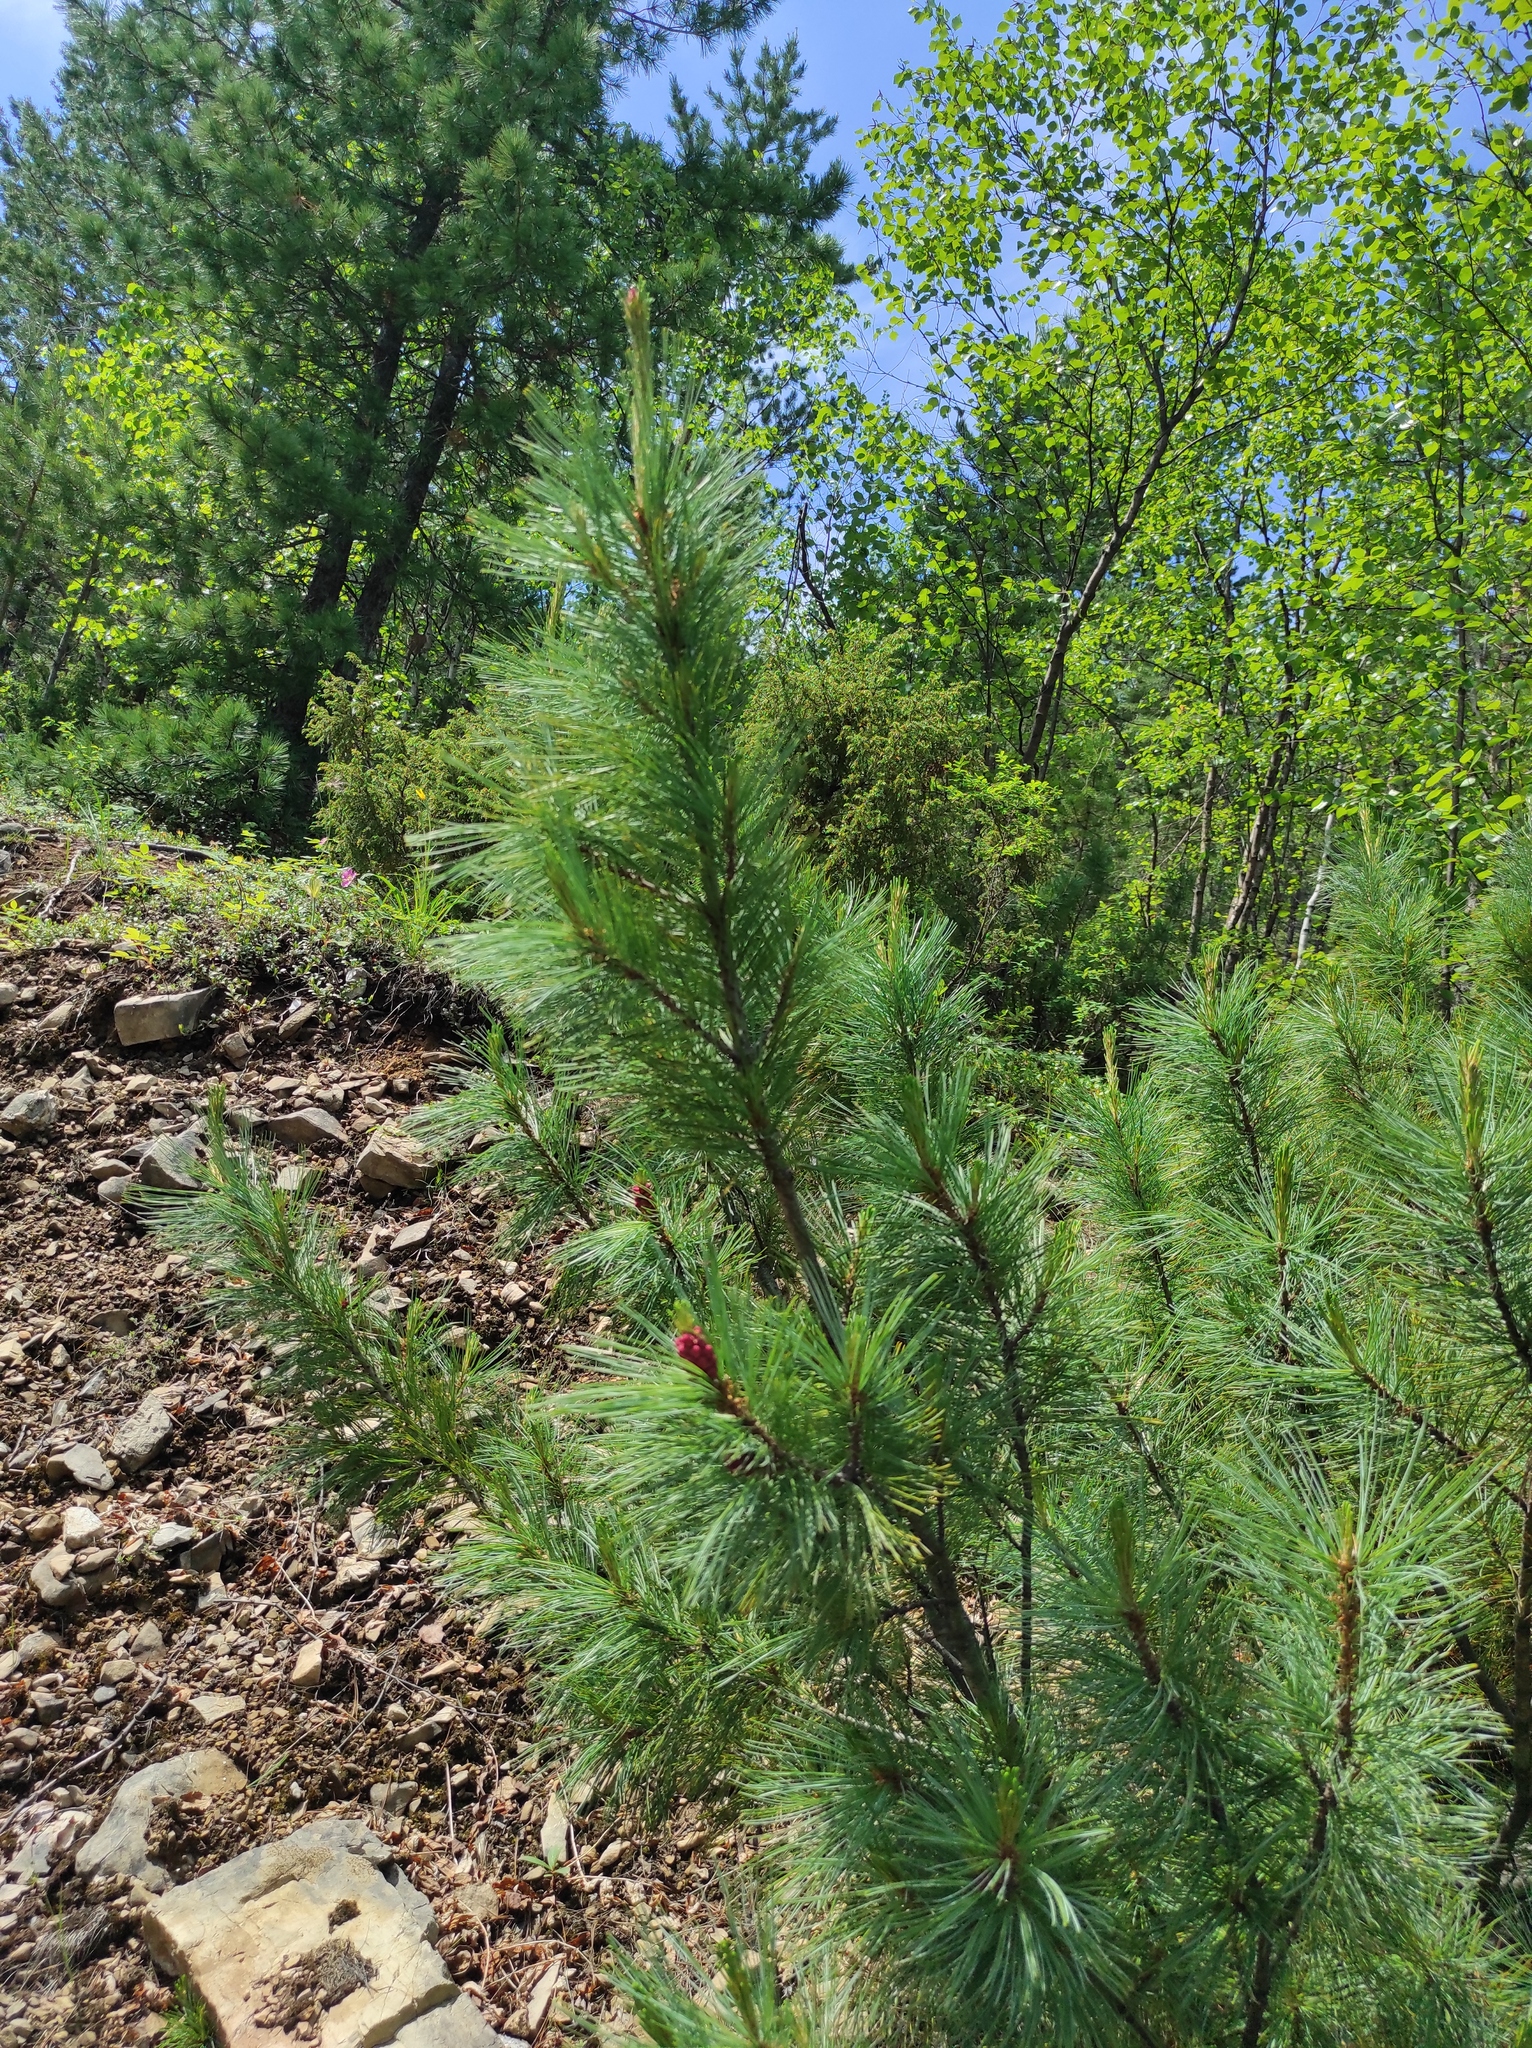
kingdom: Plantae
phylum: Tracheophyta
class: Pinopsida
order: Pinales
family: Pinaceae
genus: Pinus
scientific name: Pinus pumila
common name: Dwarf siberian pine
